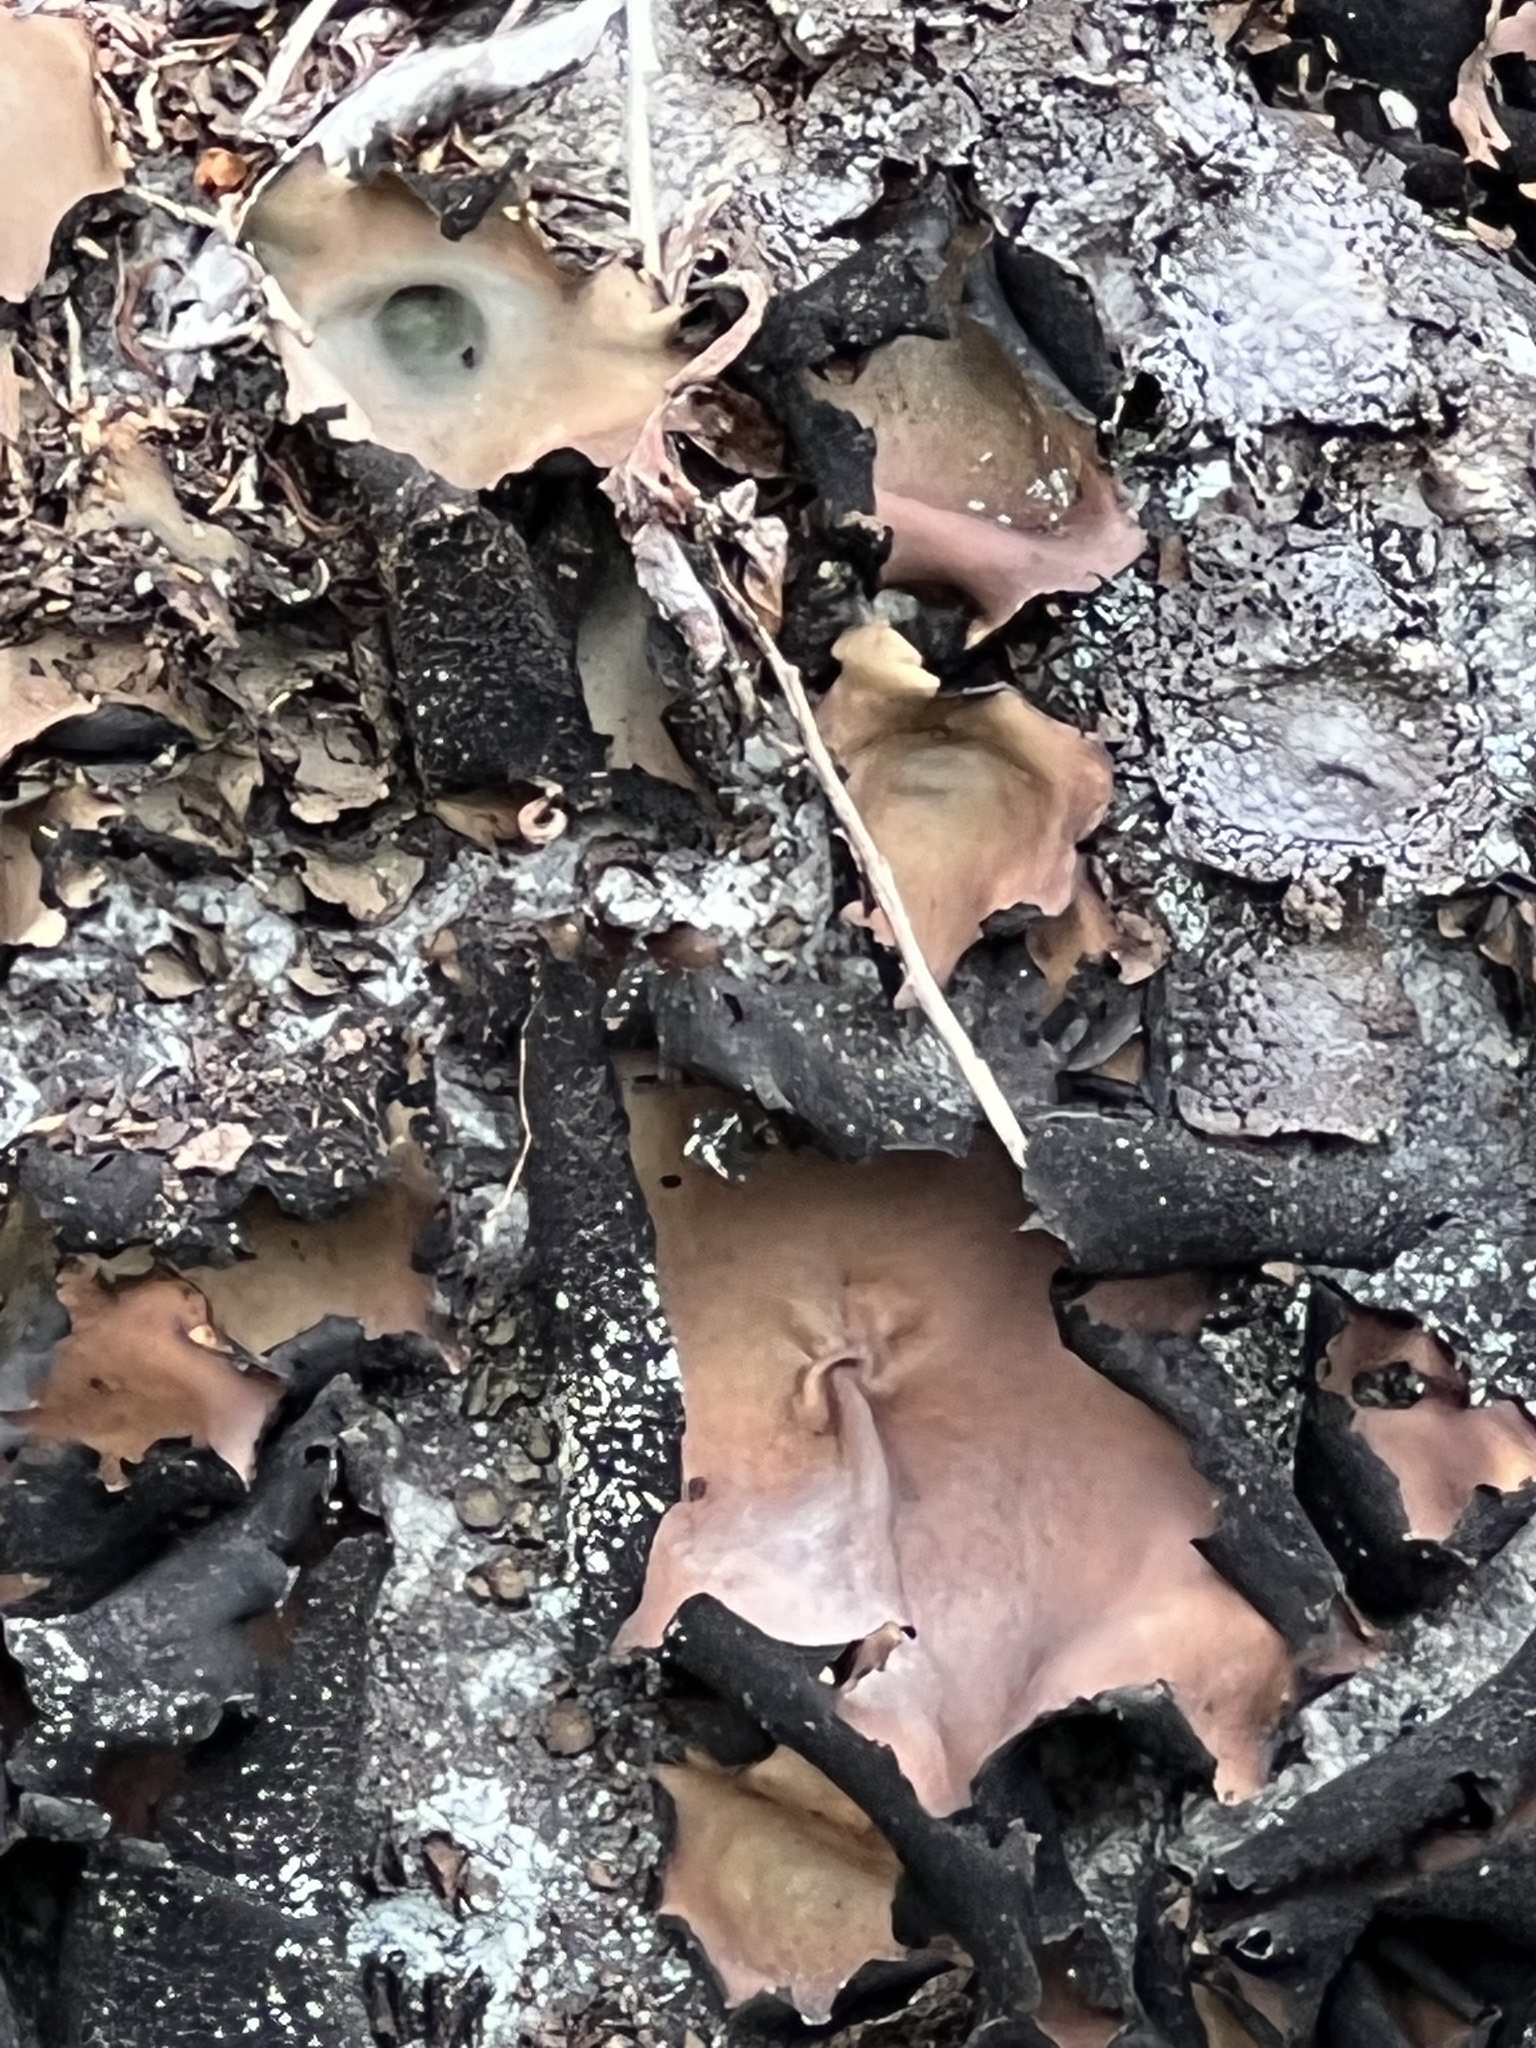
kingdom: Fungi
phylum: Ascomycota
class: Lecanoromycetes
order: Umbilicariales
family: Umbilicariaceae
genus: Umbilicaria
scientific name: Umbilicaria mammulata
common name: Smooth rock tripe
